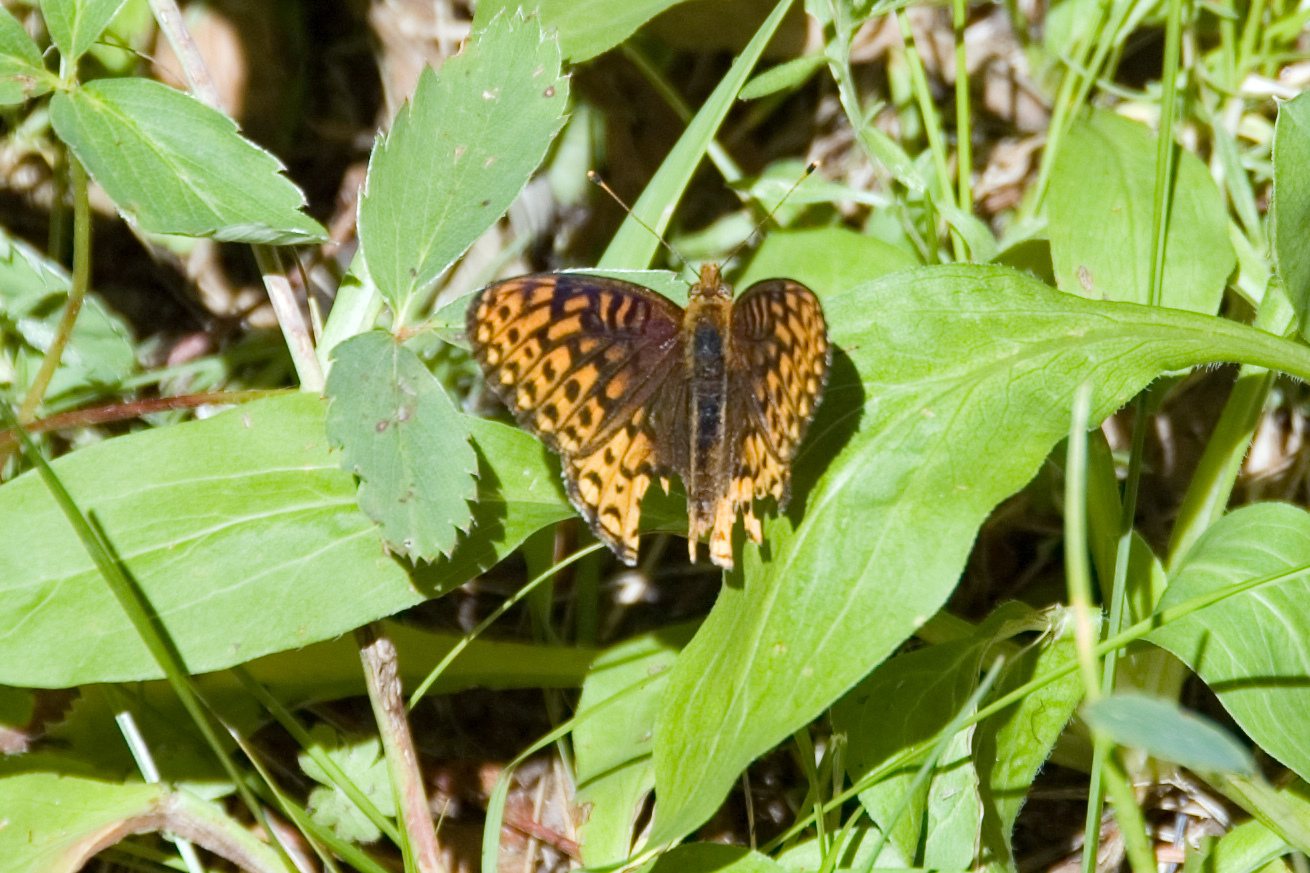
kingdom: Animalia
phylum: Arthropoda
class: Insecta
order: Lepidoptera
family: Nymphalidae
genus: Speyeria
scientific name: Speyeria atlantis
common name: Atlantis fritillary
